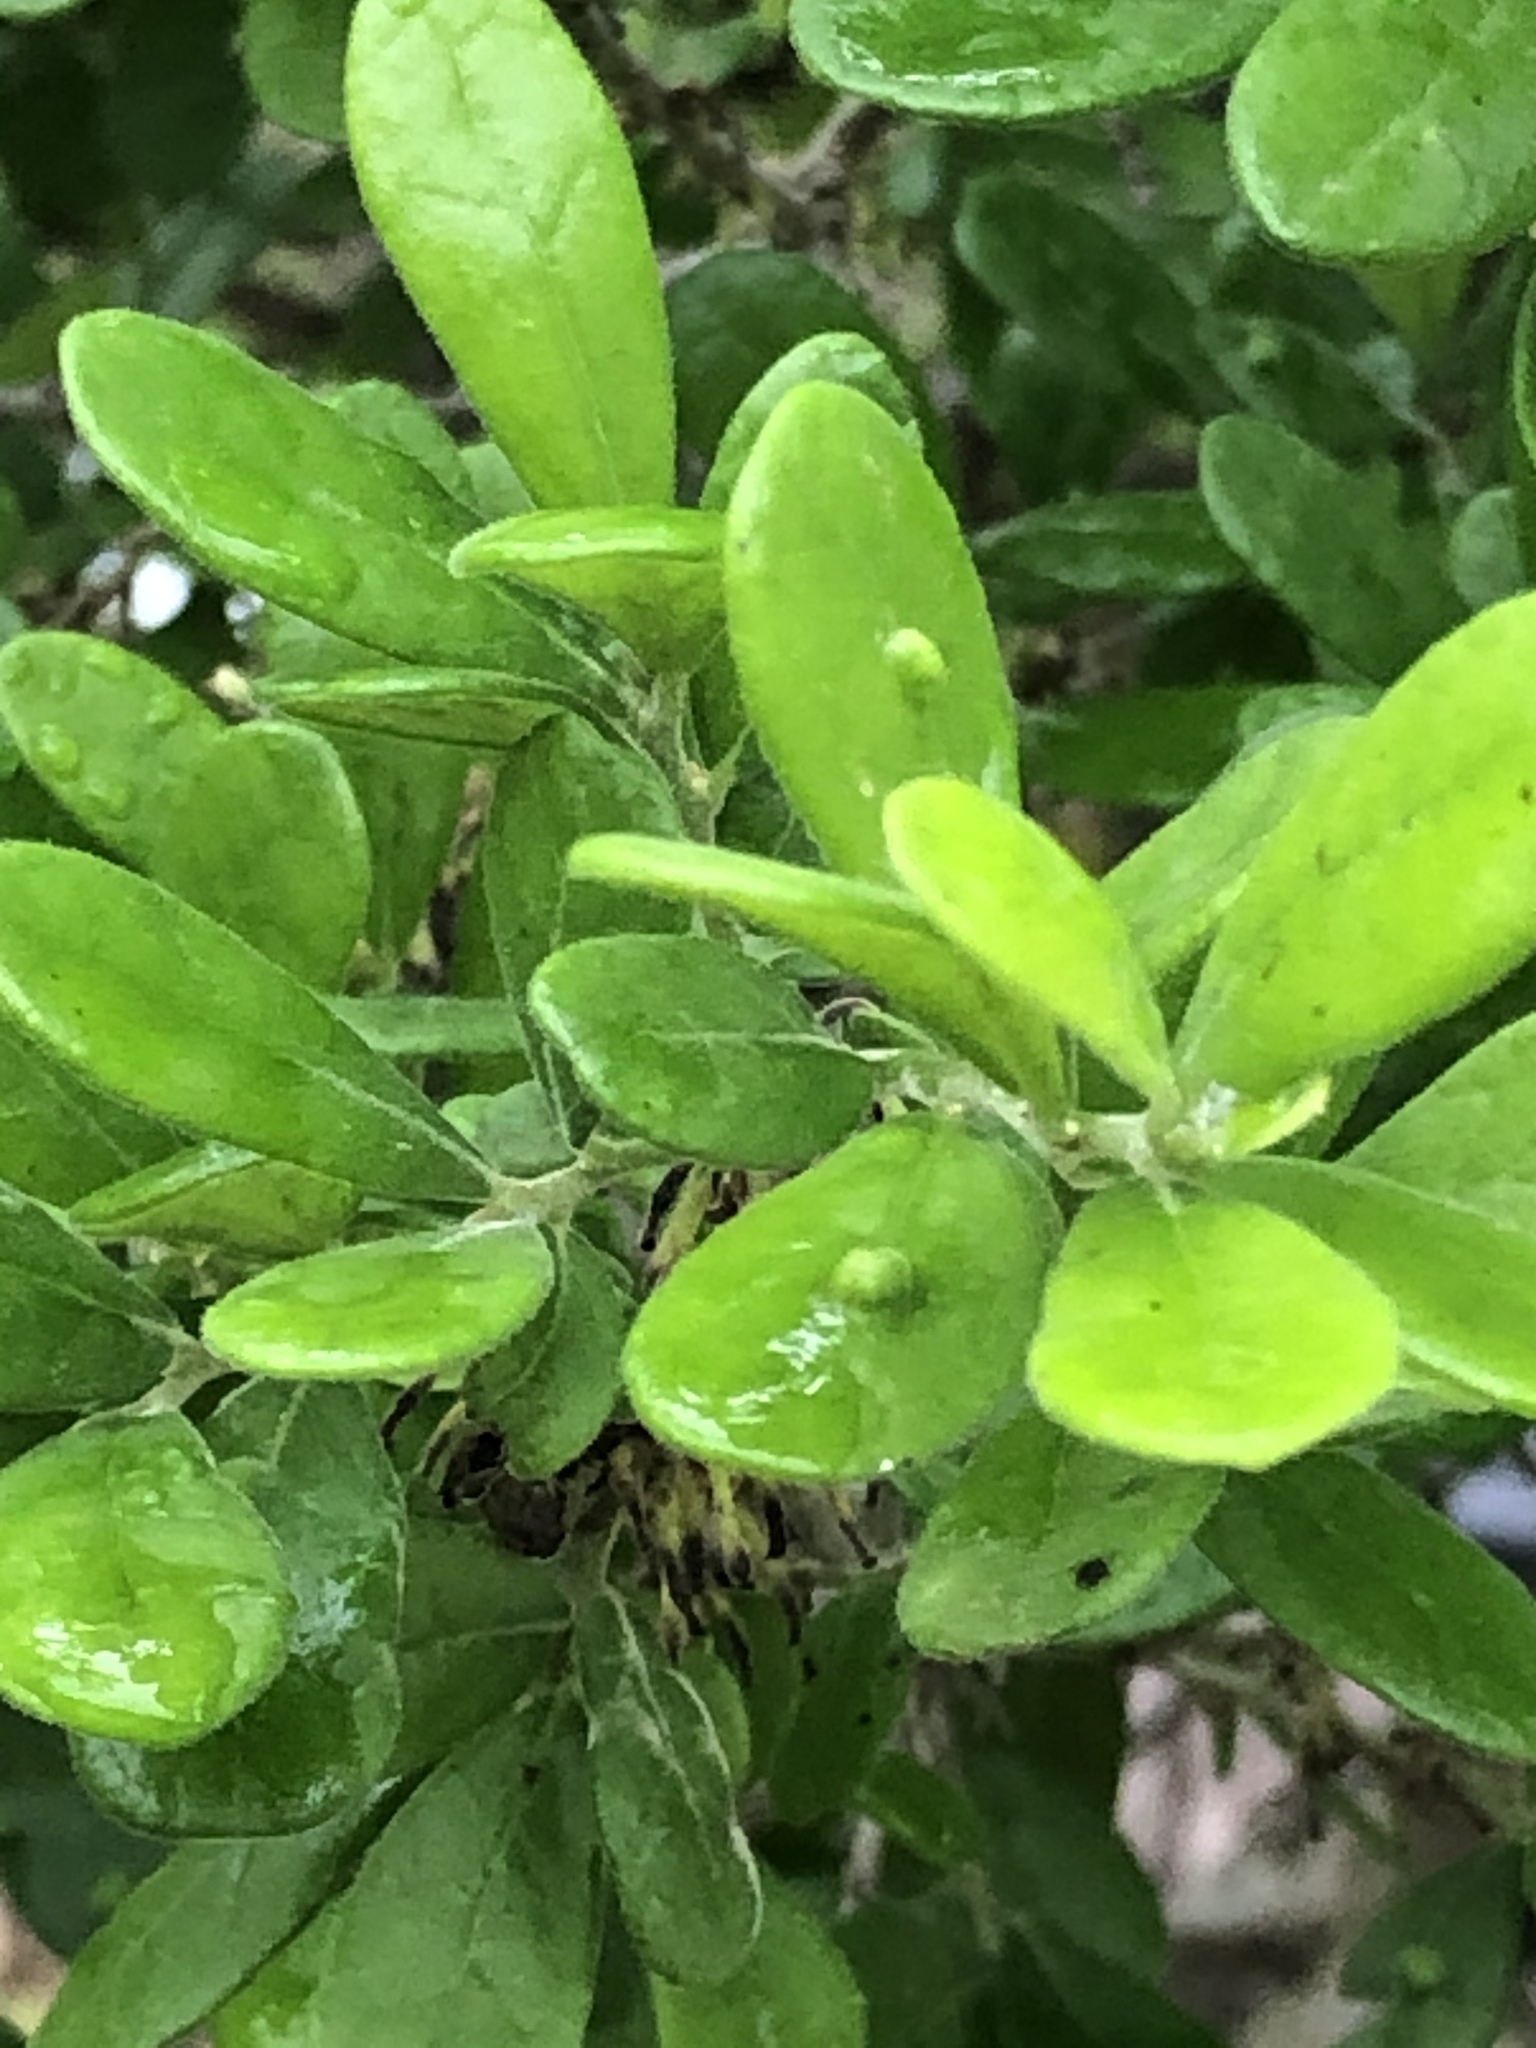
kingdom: Plantae
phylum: Tracheophyta
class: Magnoliopsida
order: Ericales
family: Ebenaceae
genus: Diospyros
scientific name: Diospyros texana
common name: Texas persimmon
